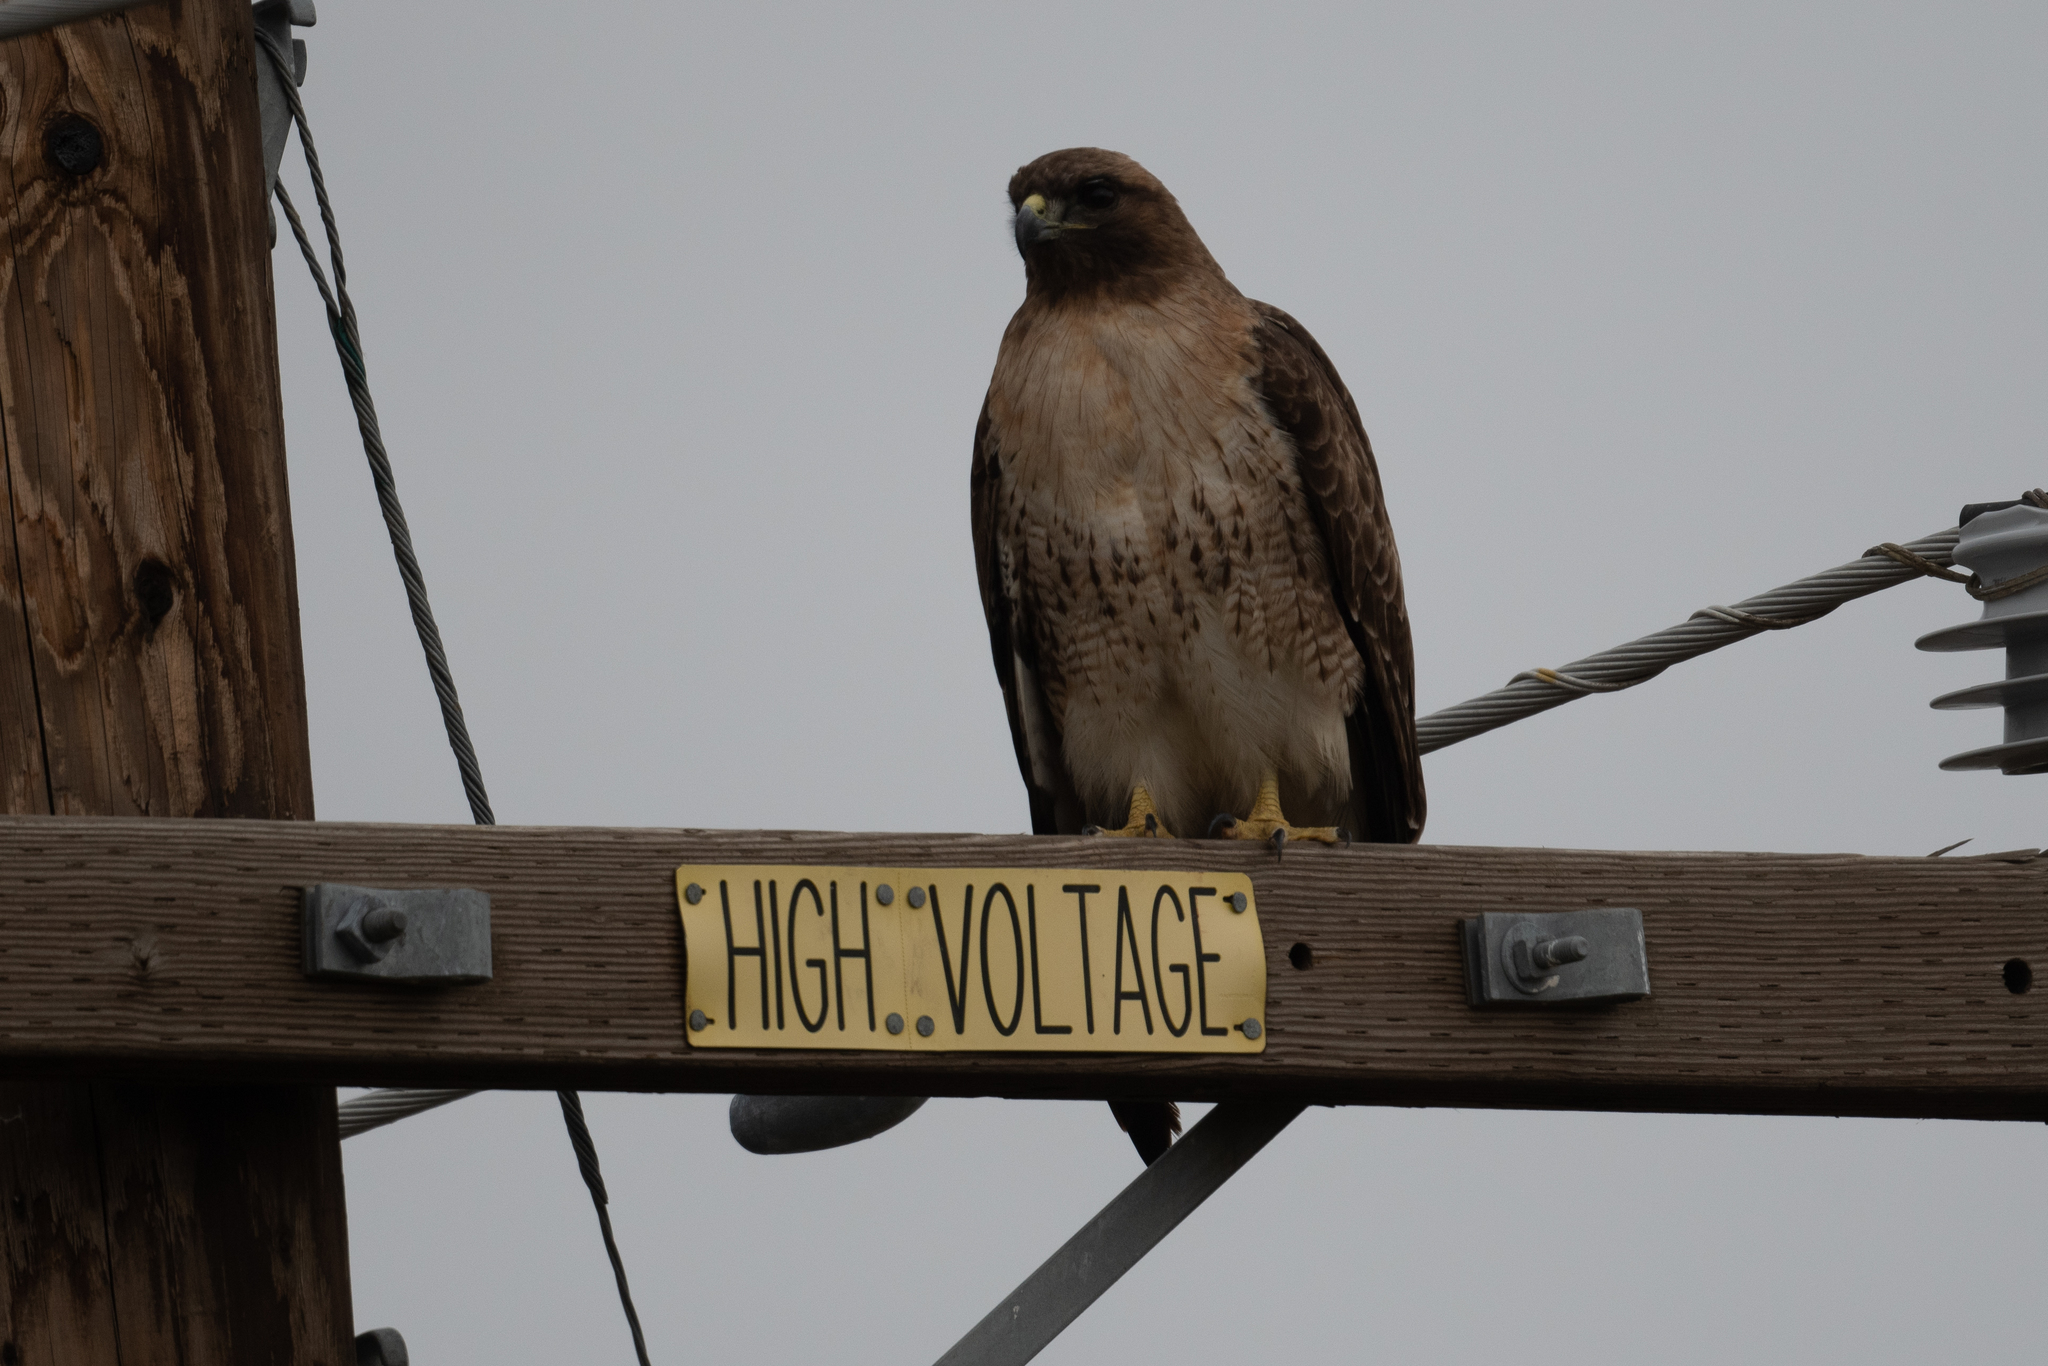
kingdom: Animalia
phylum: Chordata
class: Aves
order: Accipitriformes
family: Accipitridae
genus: Buteo
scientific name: Buteo jamaicensis
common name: Red-tailed hawk
